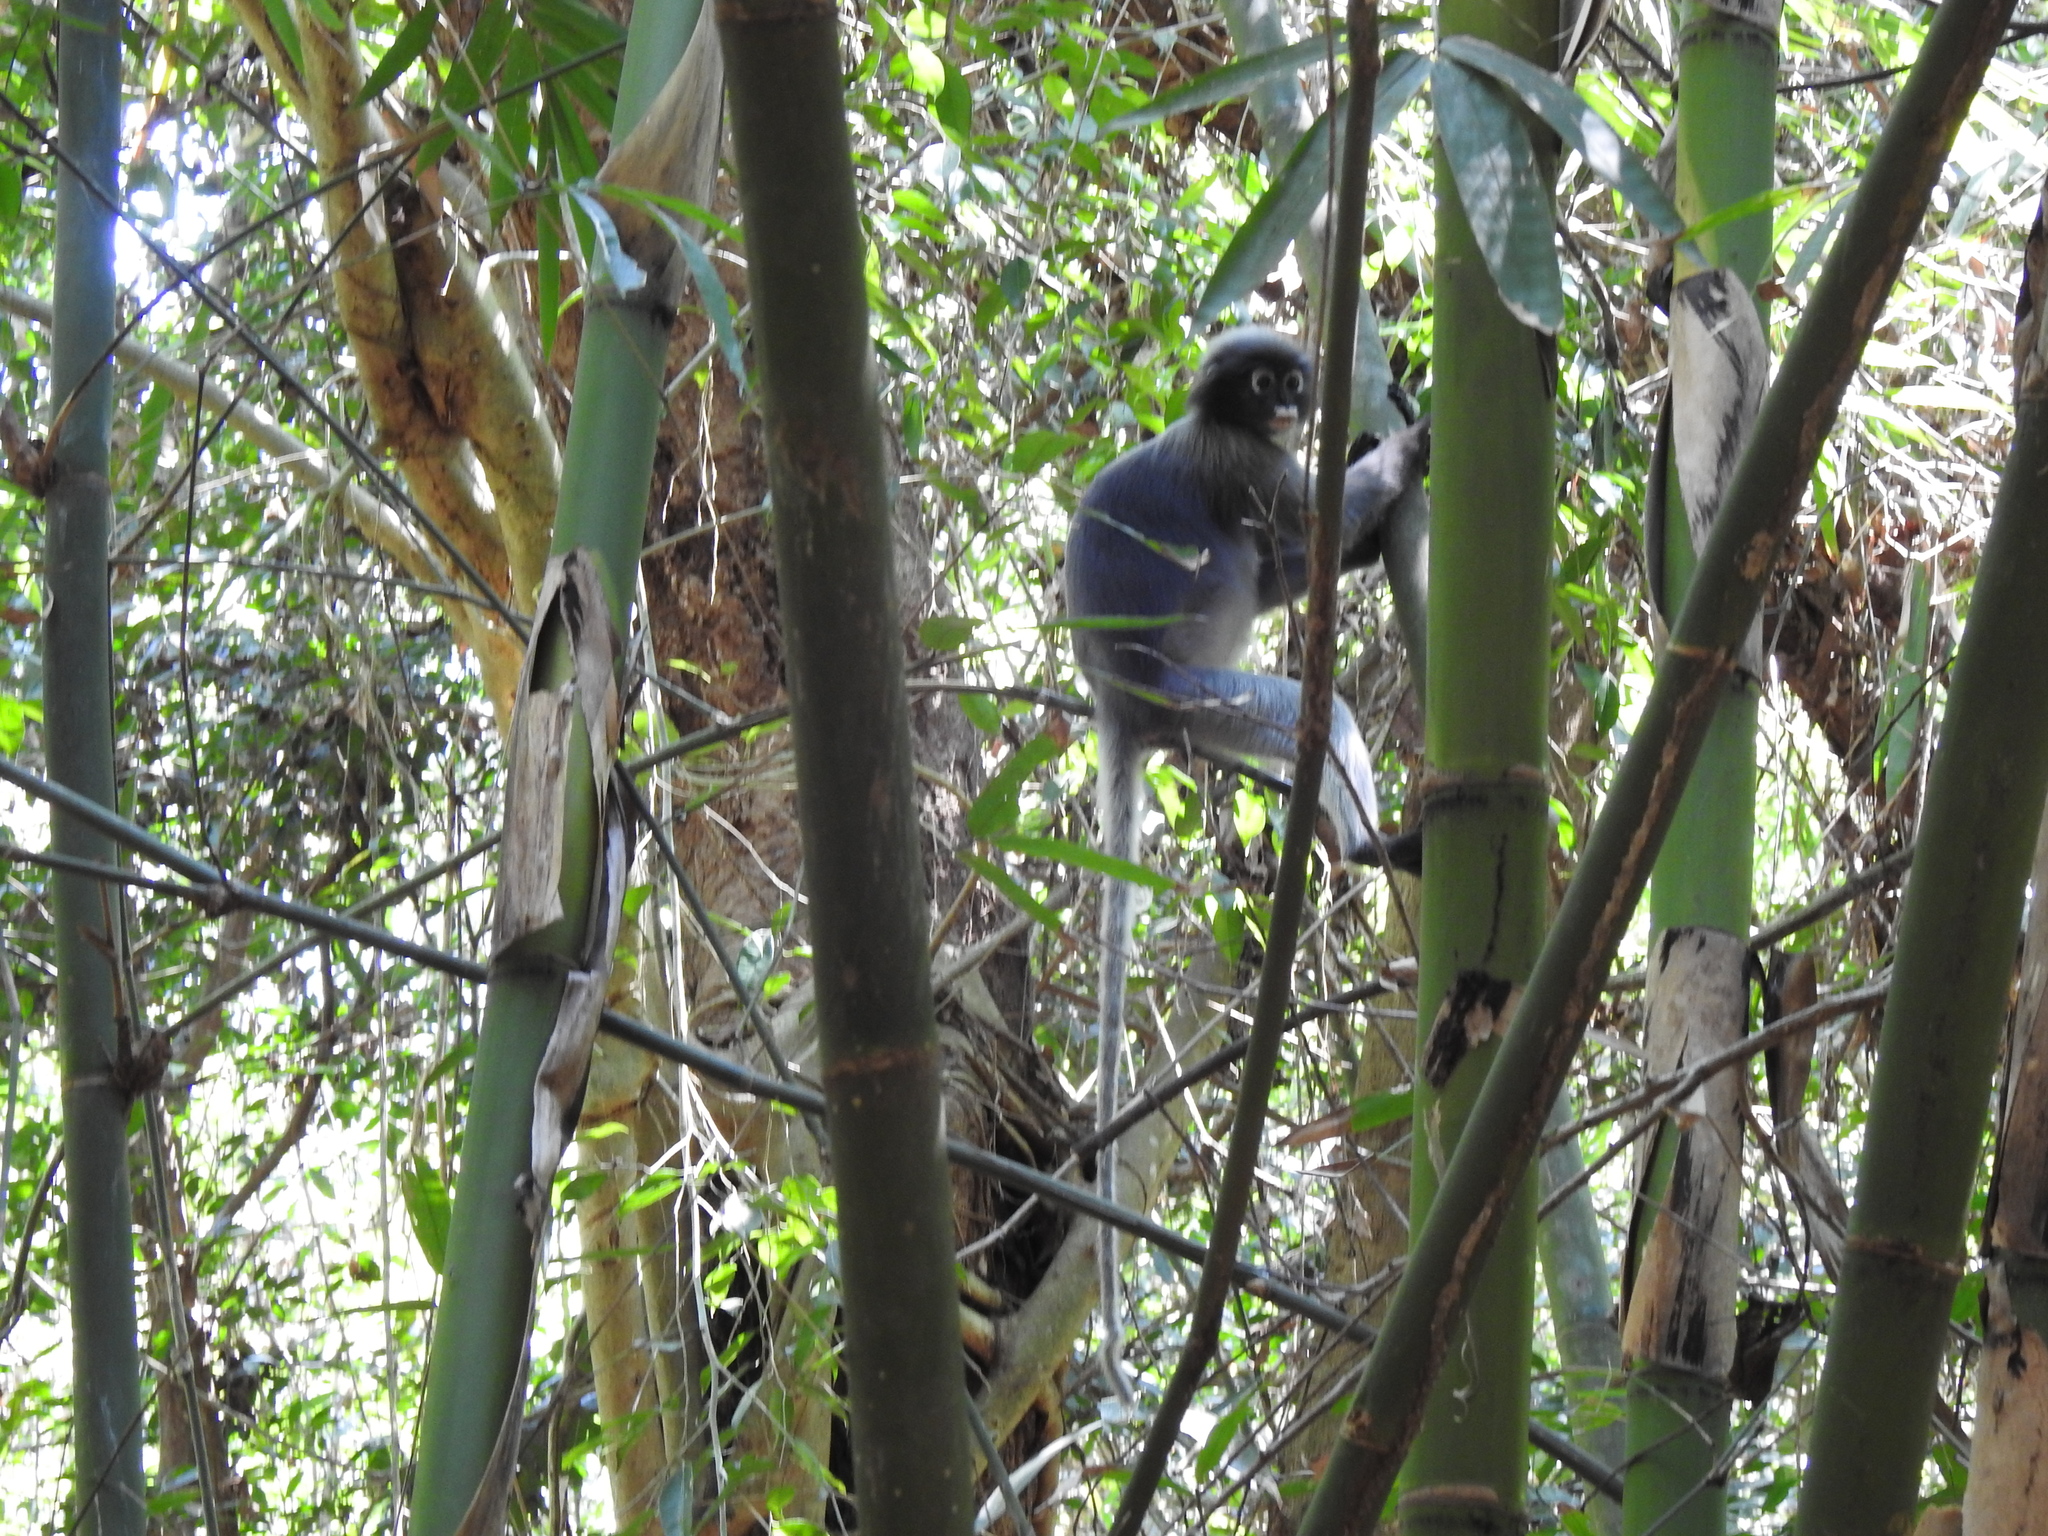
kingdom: Animalia
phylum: Chordata
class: Mammalia
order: Primates
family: Cercopithecidae
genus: Trachypithecus
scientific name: Trachypithecus obscurus
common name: Dusky leaf-monkey
